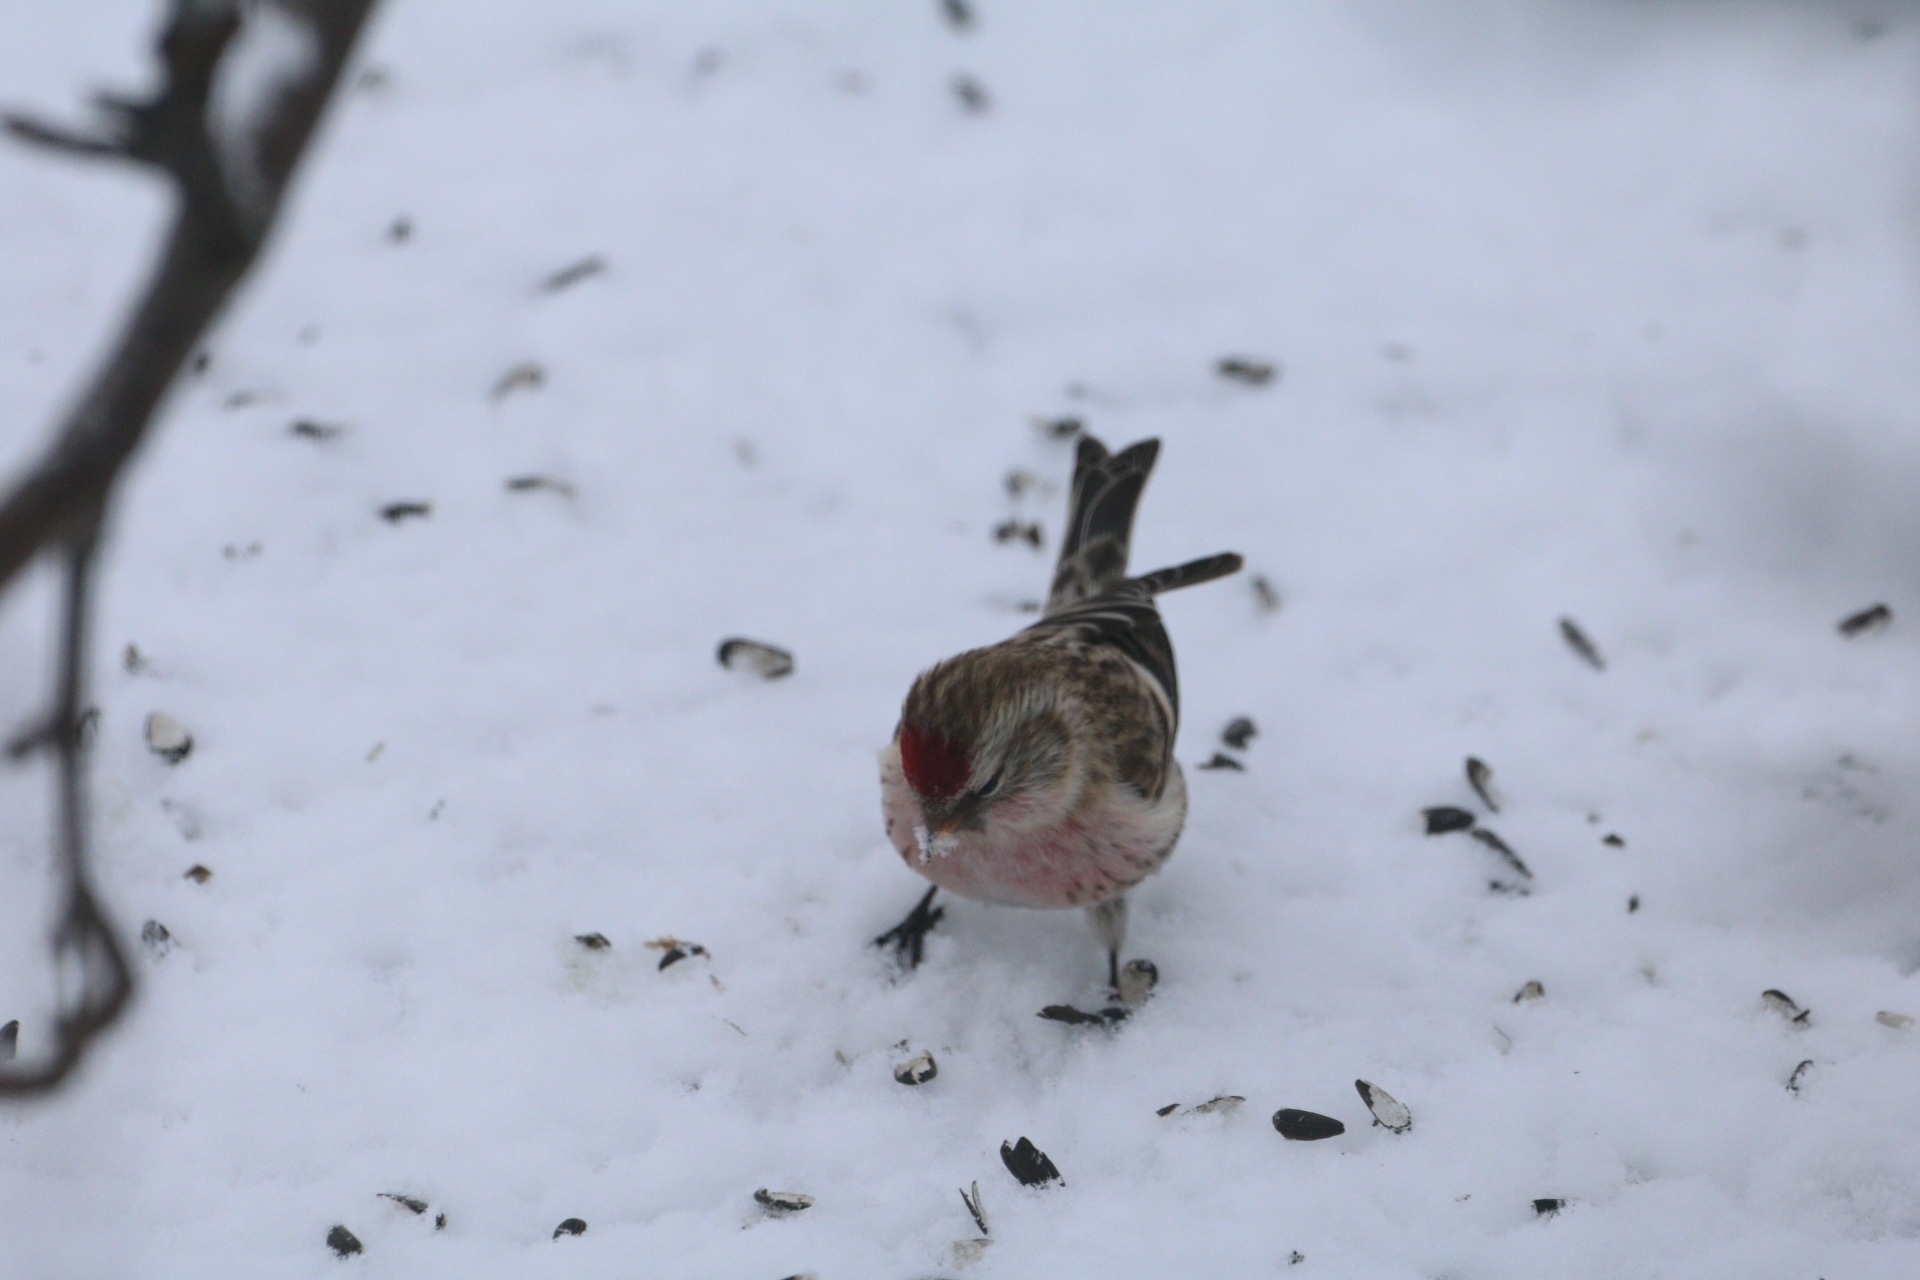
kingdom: Animalia
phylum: Chordata
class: Aves
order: Passeriformes
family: Fringillidae
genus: Acanthis
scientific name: Acanthis flammea
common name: Common redpoll
